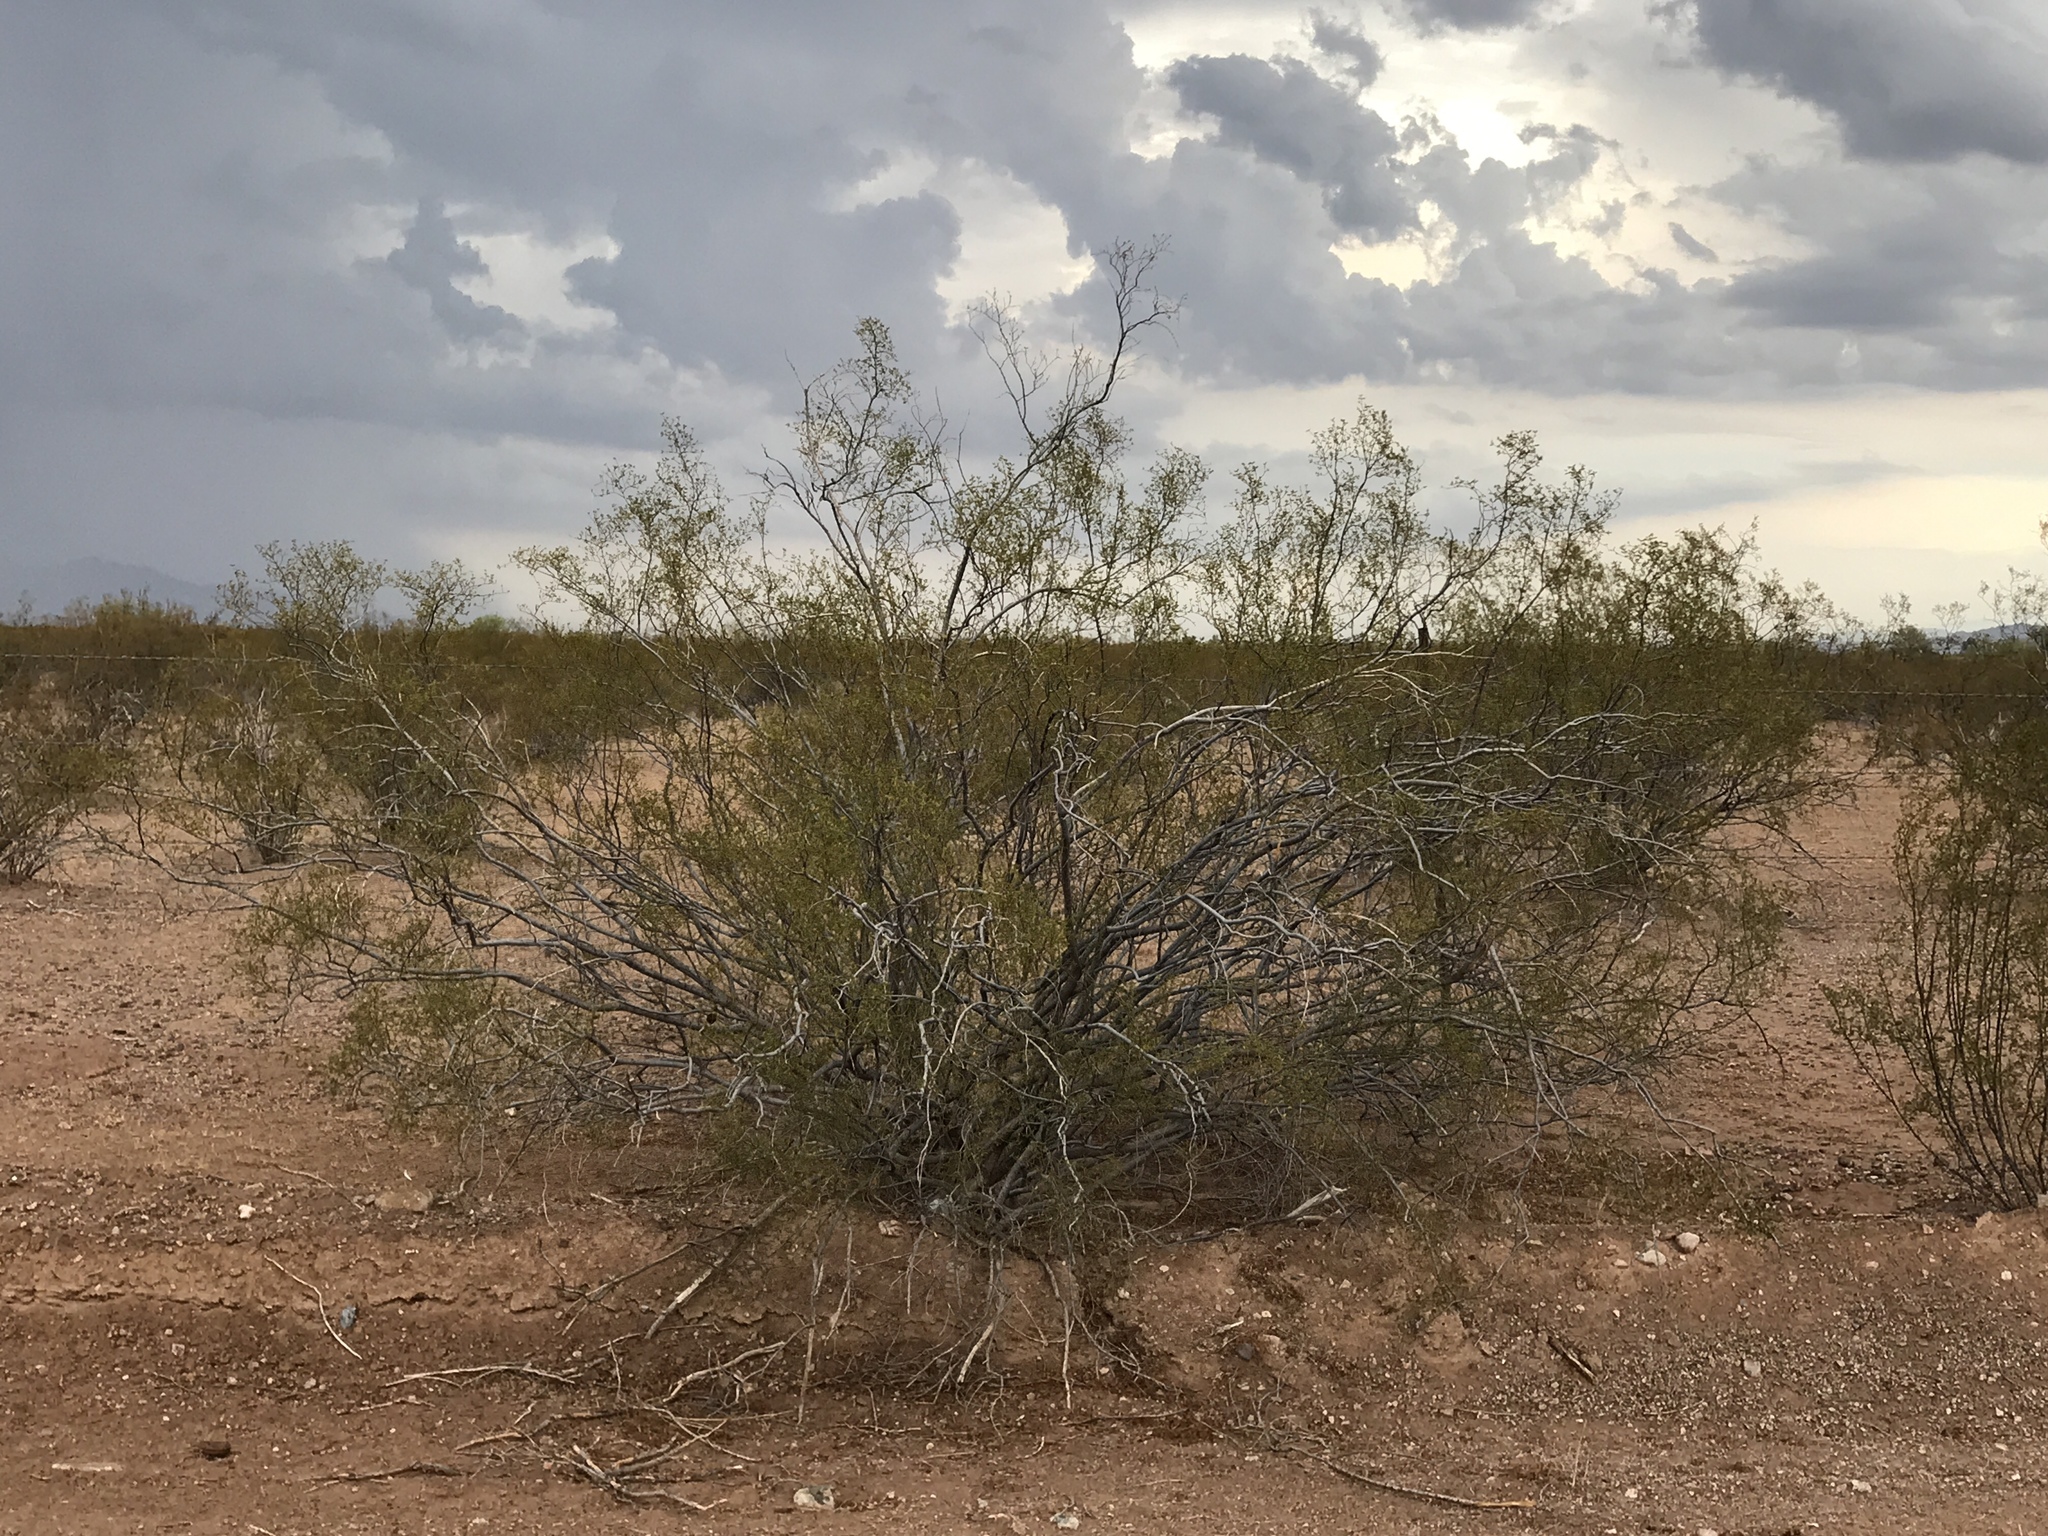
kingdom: Plantae
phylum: Tracheophyta
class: Magnoliopsida
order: Zygophyllales
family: Zygophyllaceae
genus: Larrea
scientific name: Larrea tridentata
